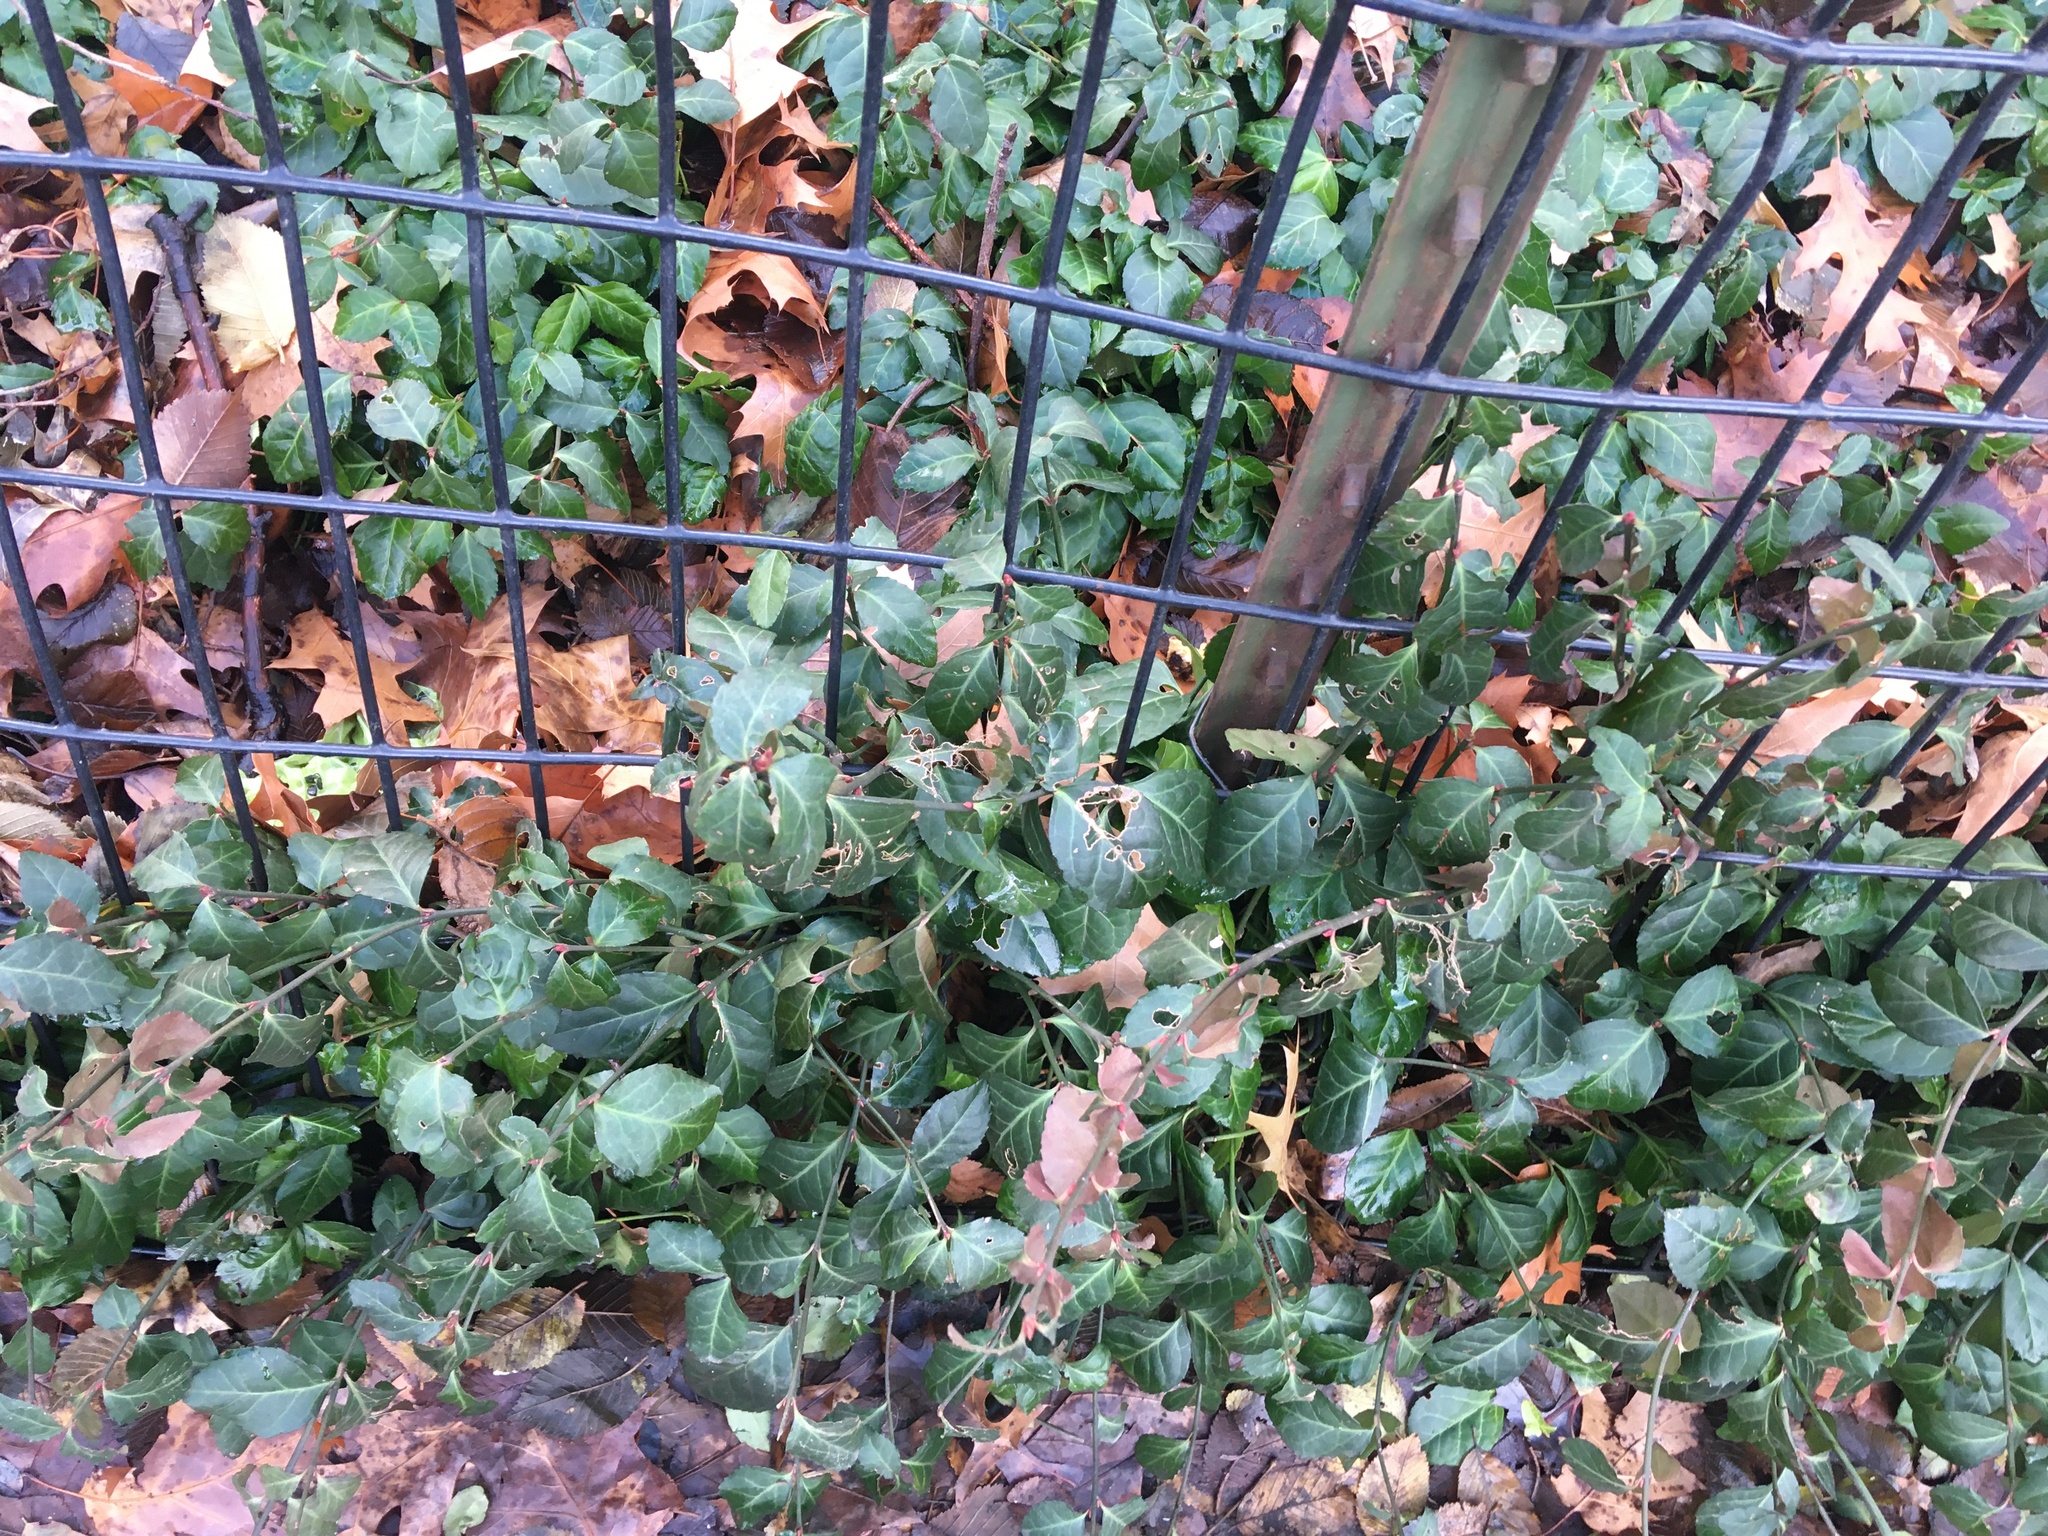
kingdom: Plantae
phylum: Tracheophyta
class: Magnoliopsida
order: Celastrales
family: Celastraceae
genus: Euonymus
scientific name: Euonymus fortunei
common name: Climbing euonymus
